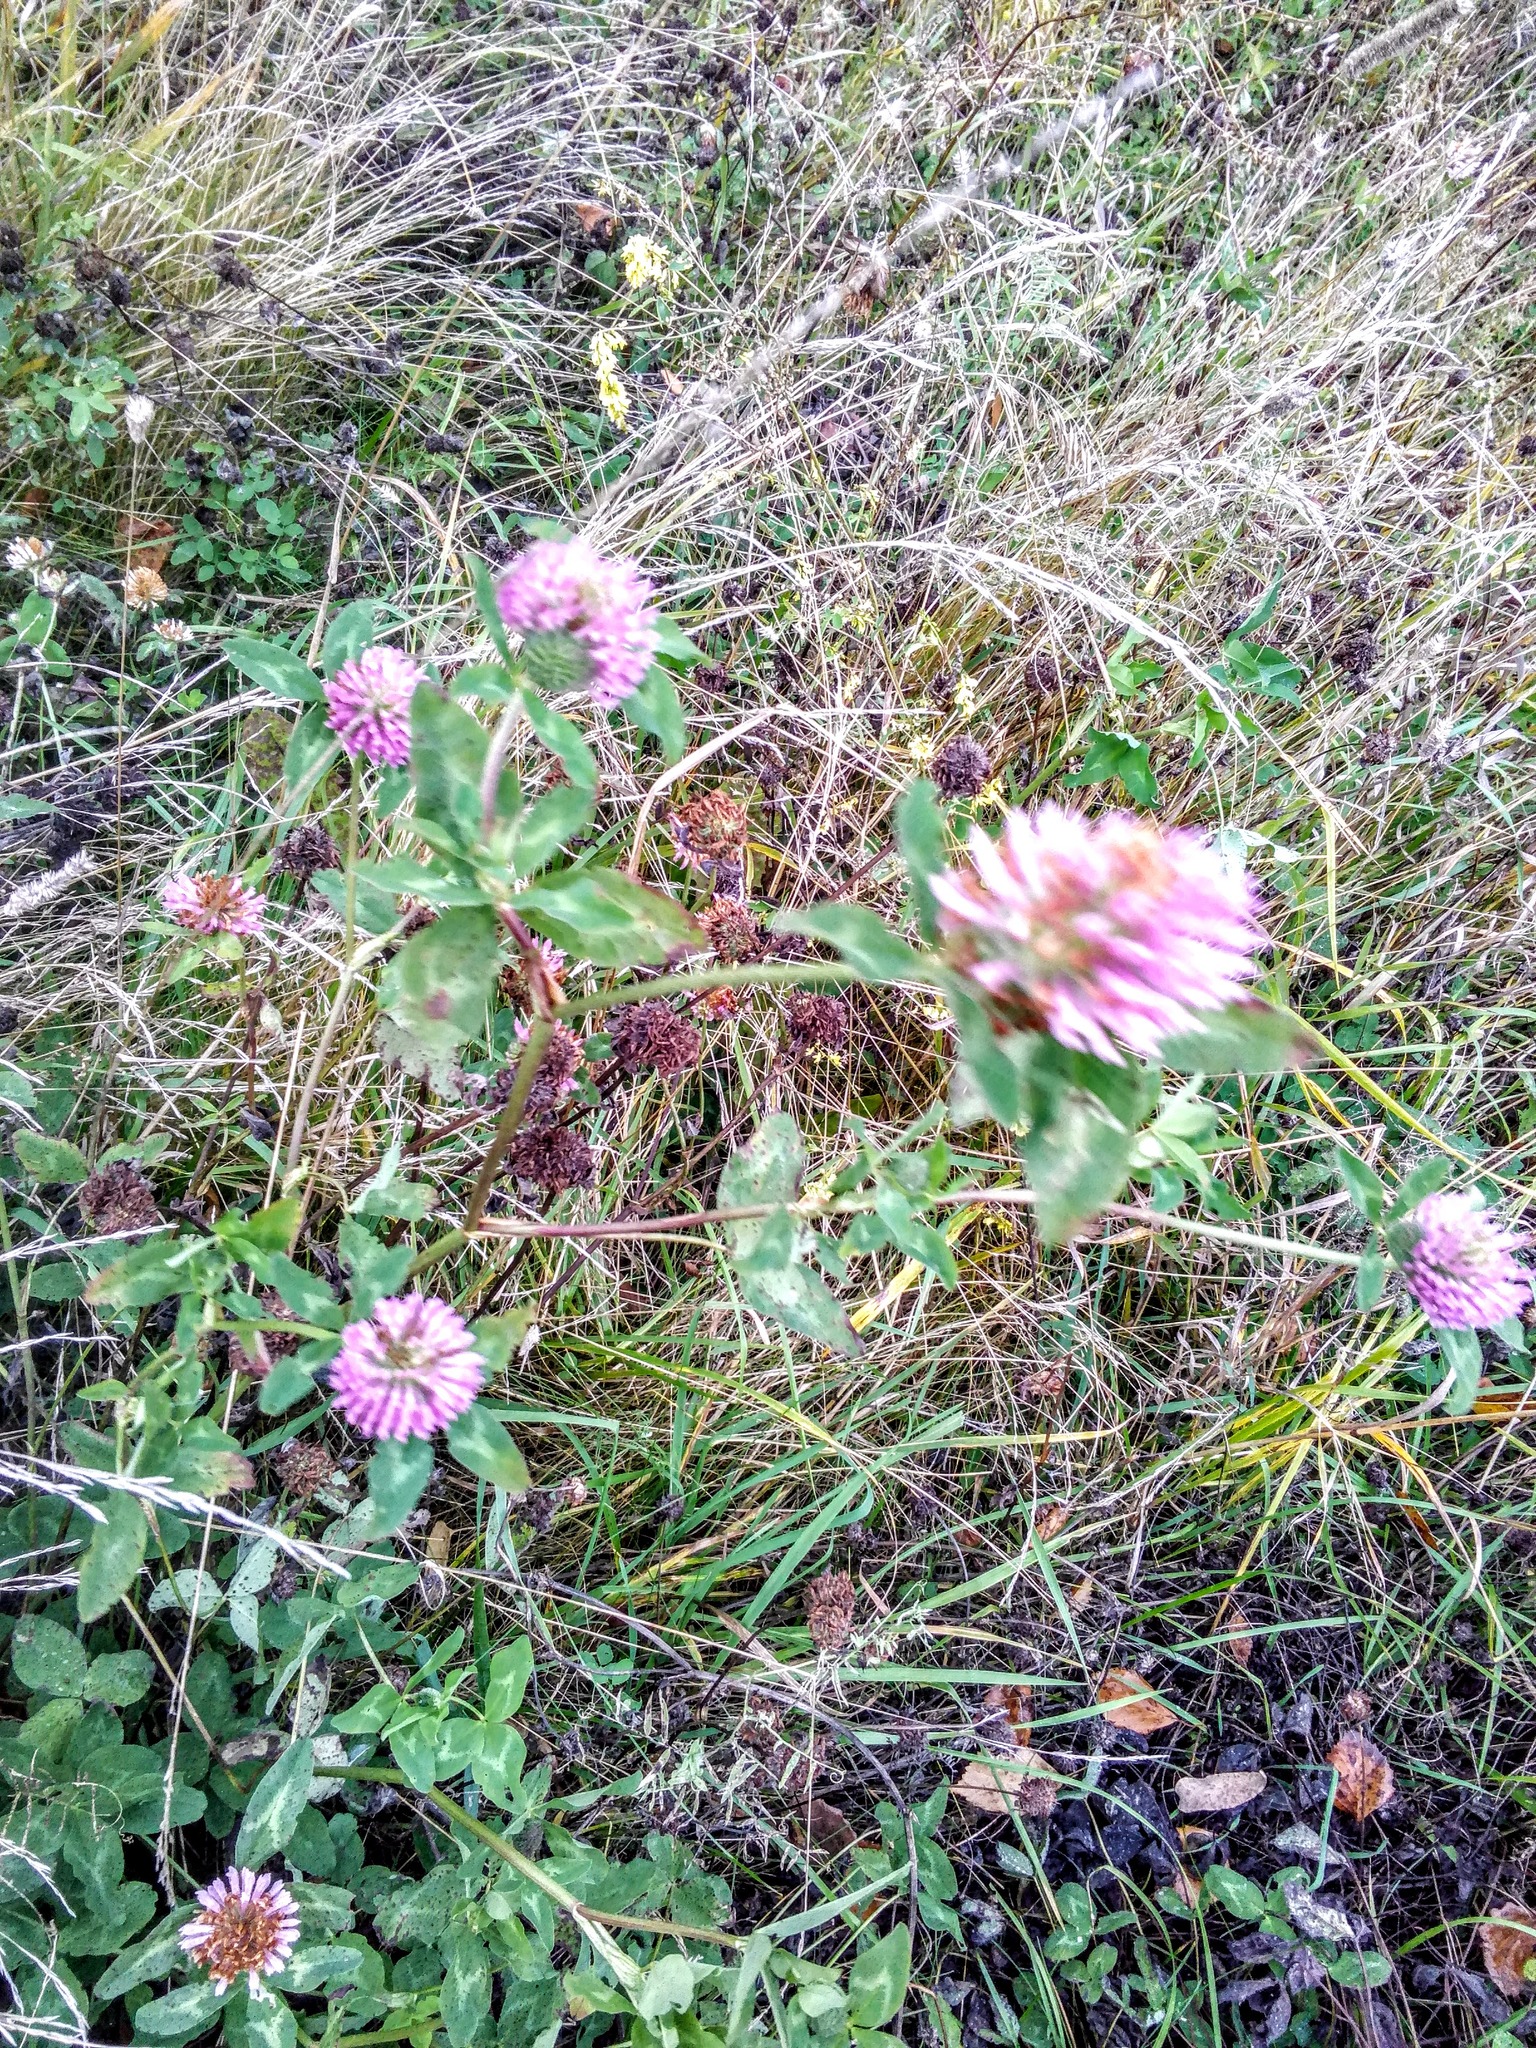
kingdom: Plantae
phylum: Tracheophyta
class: Magnoliopsida
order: Fabales
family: Fabaceae
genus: Trifolium
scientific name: Trifolium pratense
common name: Red clover
